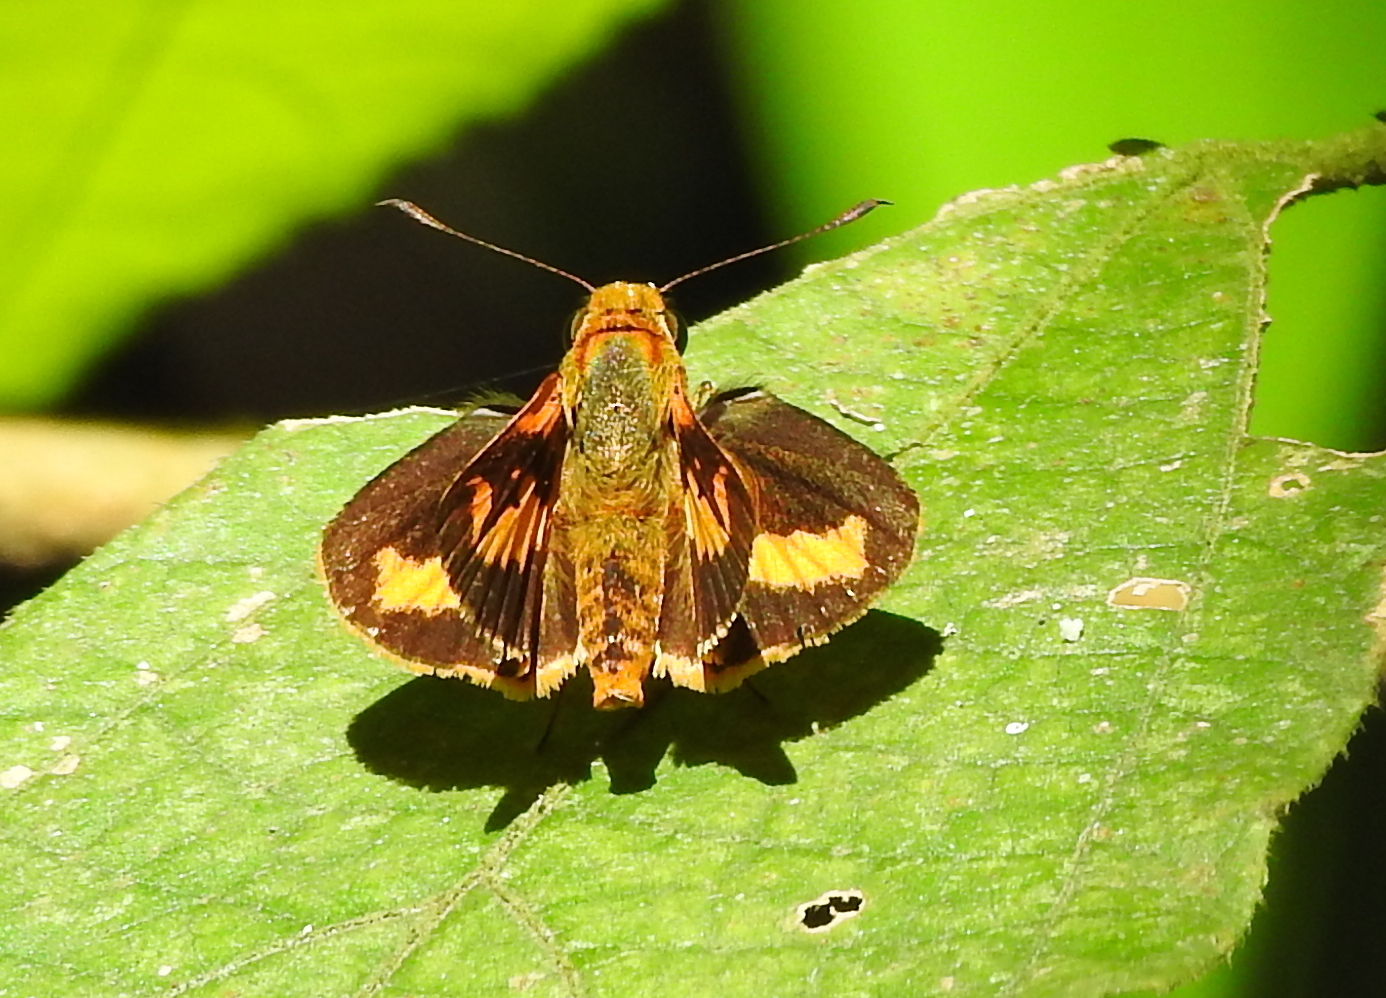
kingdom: Animalia
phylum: Arthropoda
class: Insecta
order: Lepidoptera
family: Hesperiidae
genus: Oriens
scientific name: Oriens gola
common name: Common dartlet
